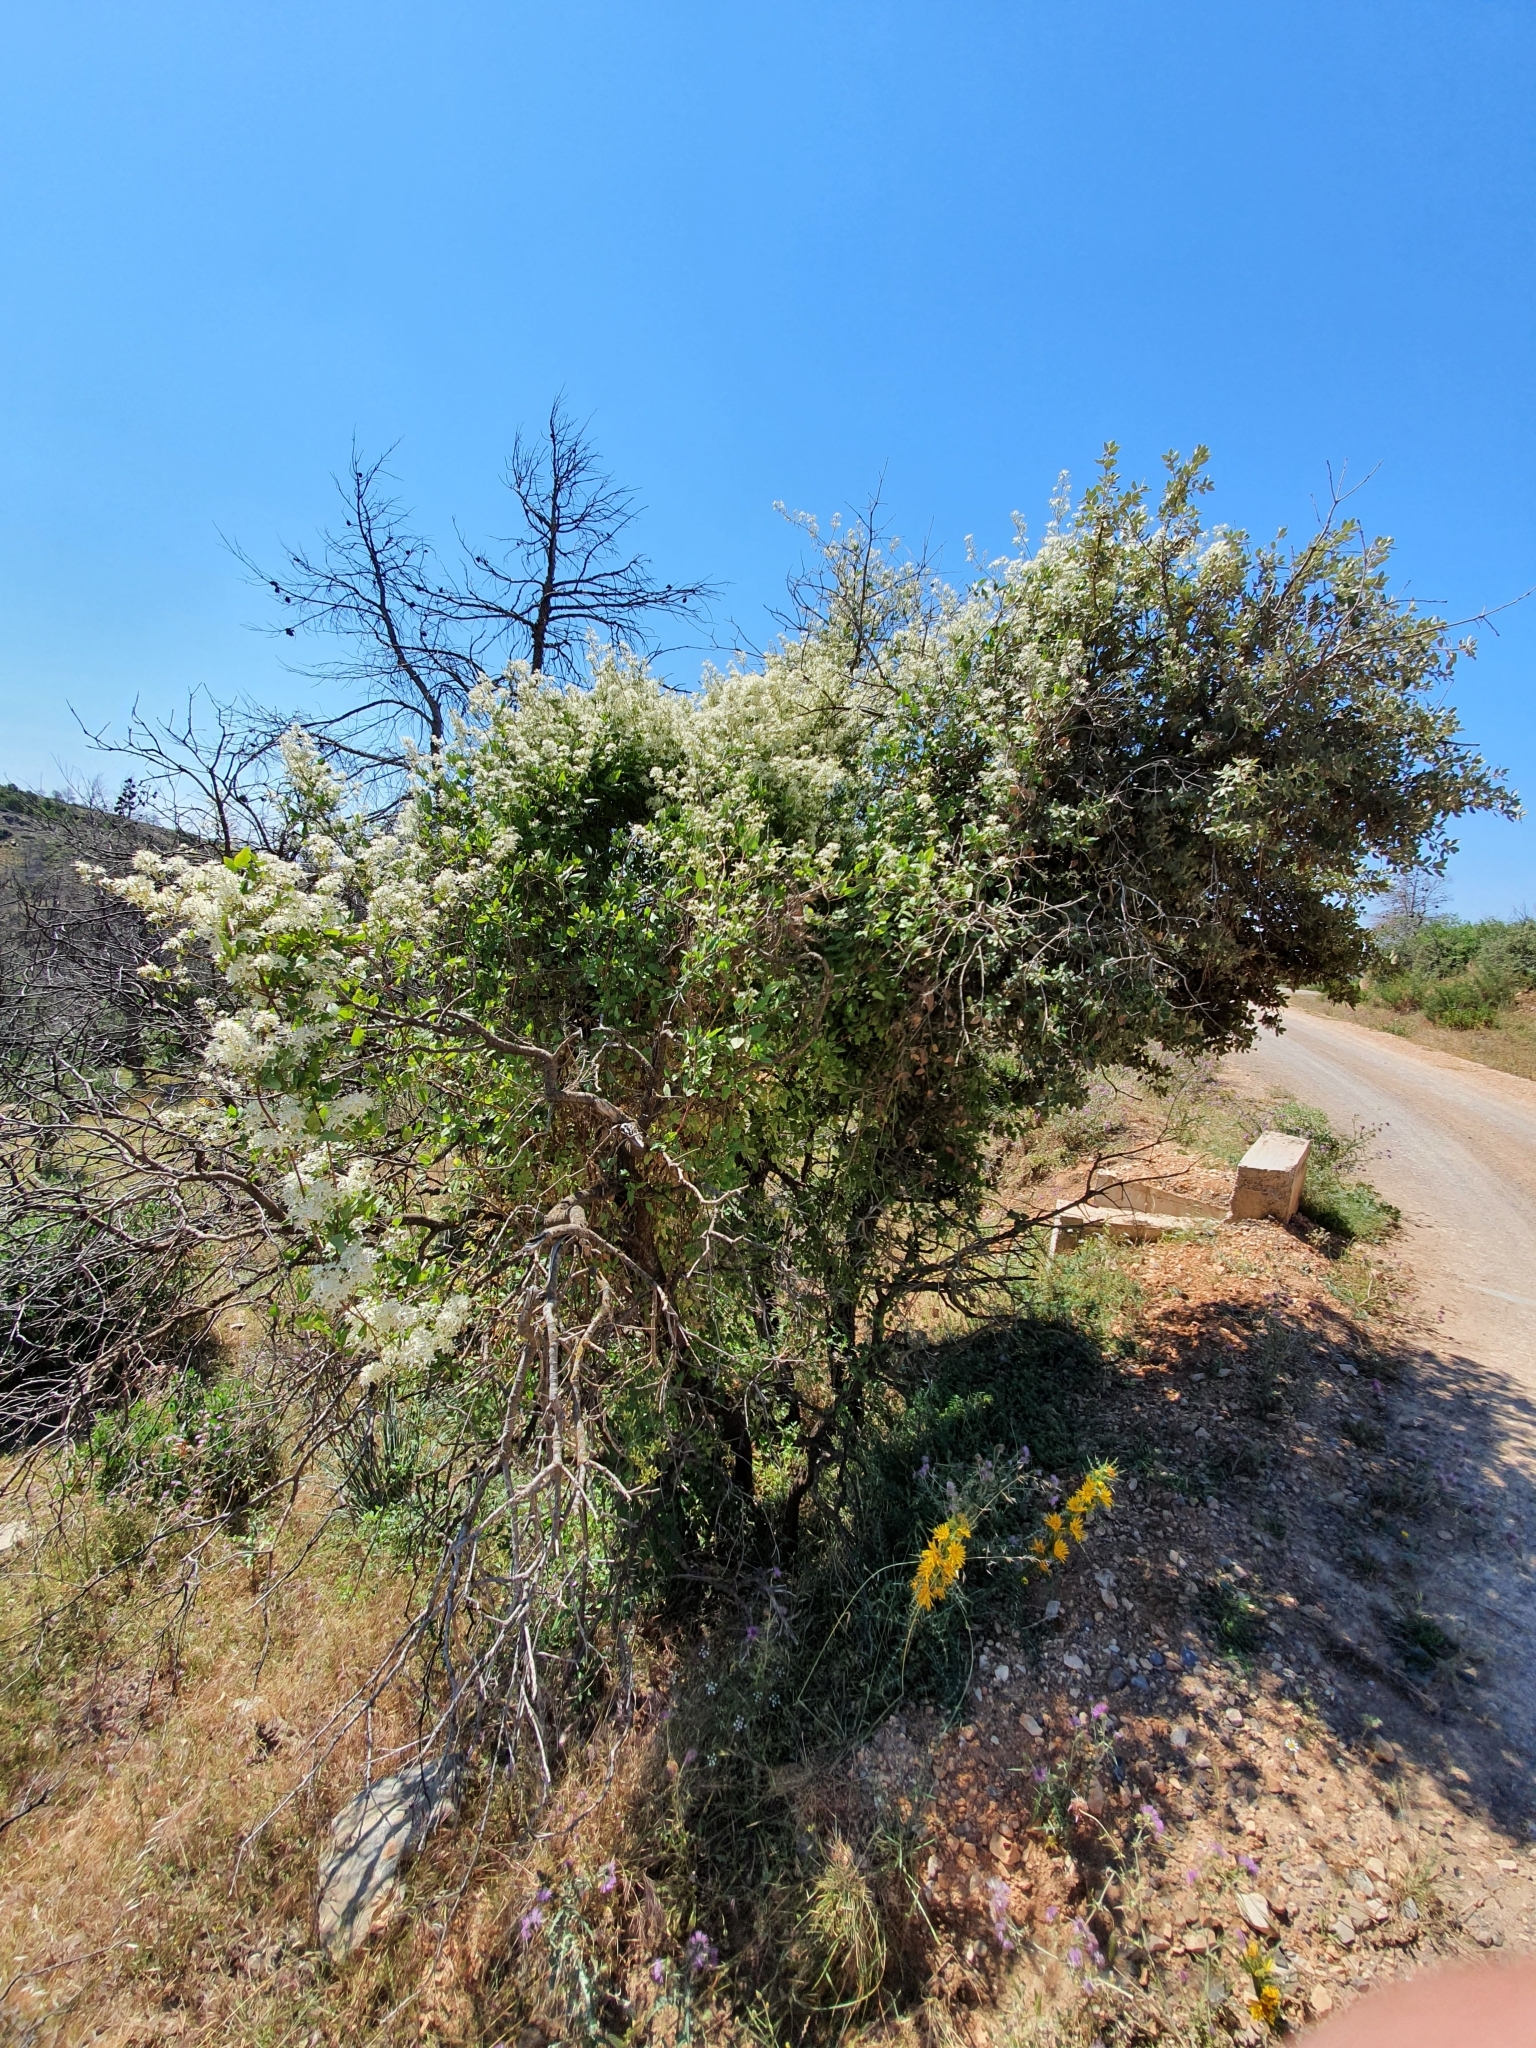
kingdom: Plantae
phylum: Tracheophyta
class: Magnoliopsida
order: Ranunculales
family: Ranunculaceae
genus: Clematis
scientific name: Clematis flammula
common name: Virgin's-bower
